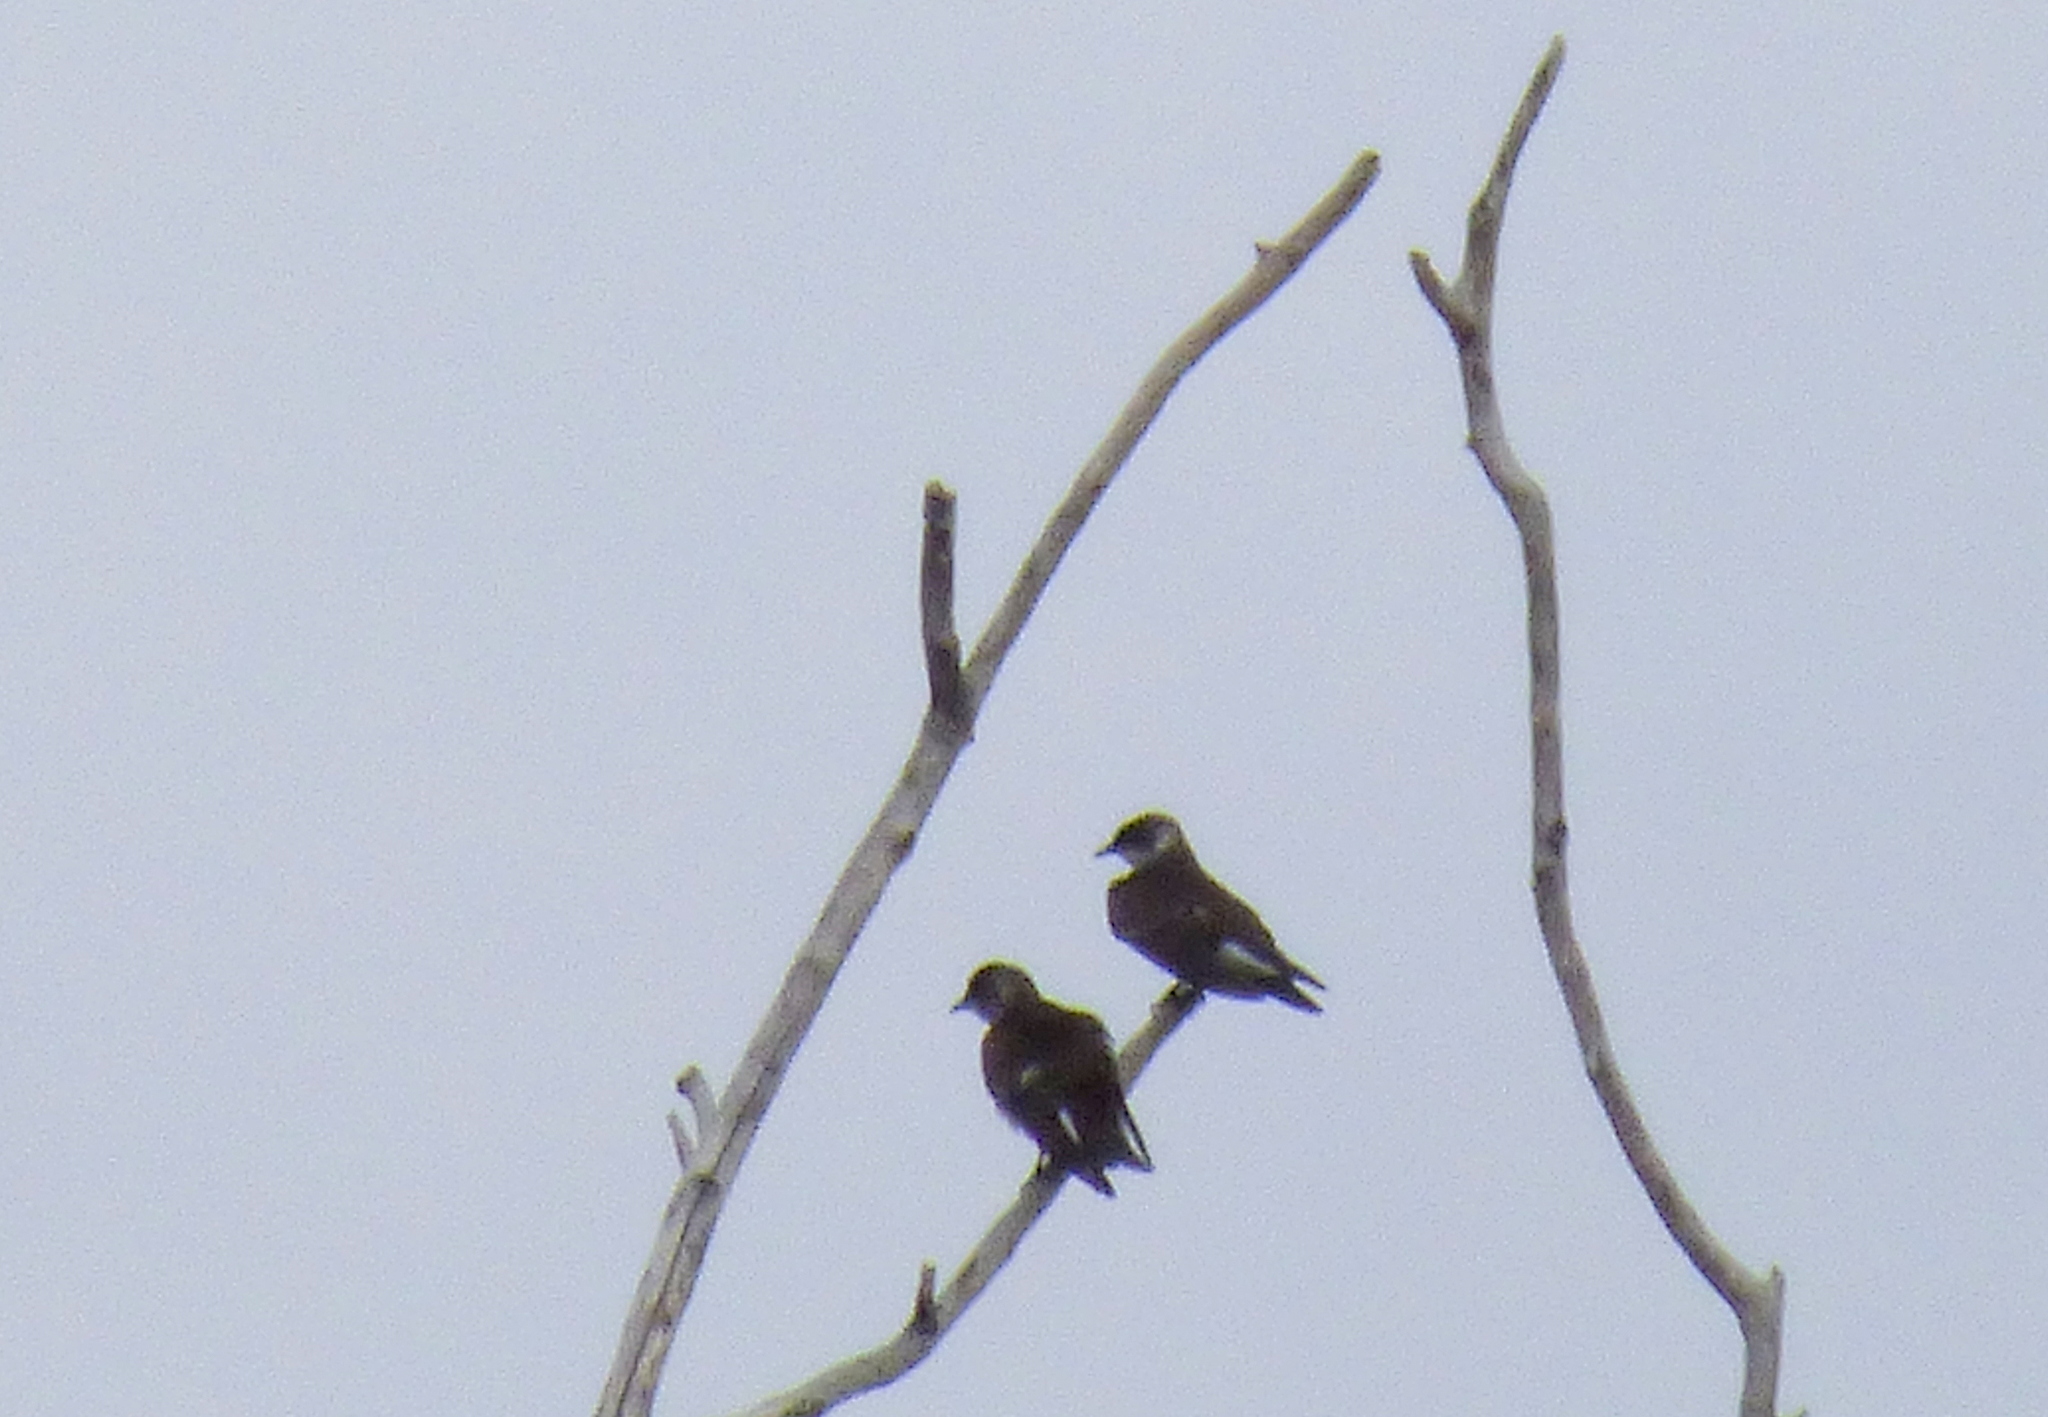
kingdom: Animalia
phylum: Chordata
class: Aves
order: Passeriformes
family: Hirundinidae
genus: Progne
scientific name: Progne tapera
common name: Brown-chested martin
